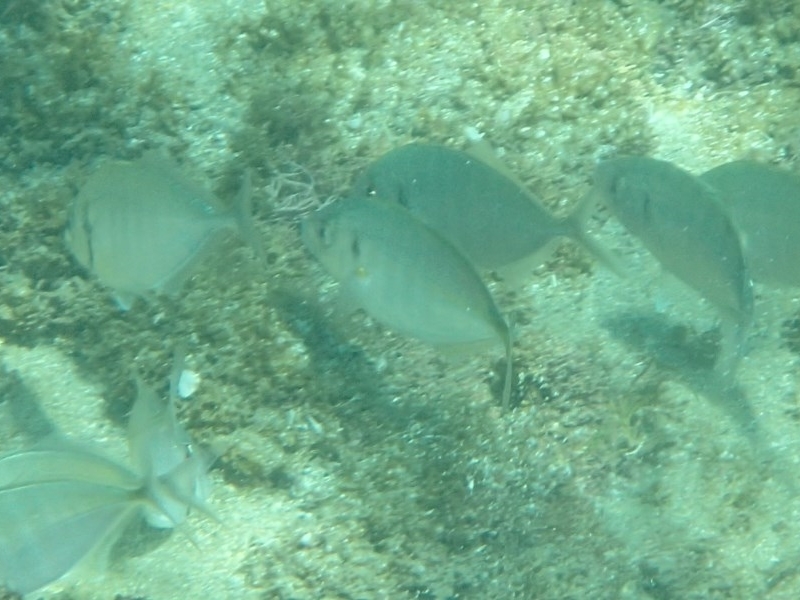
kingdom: Animalia
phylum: Chordata
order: Perciformes
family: Carangidae
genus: Pseudocaranx
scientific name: Pseudocaranx dentex
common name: White trevally
